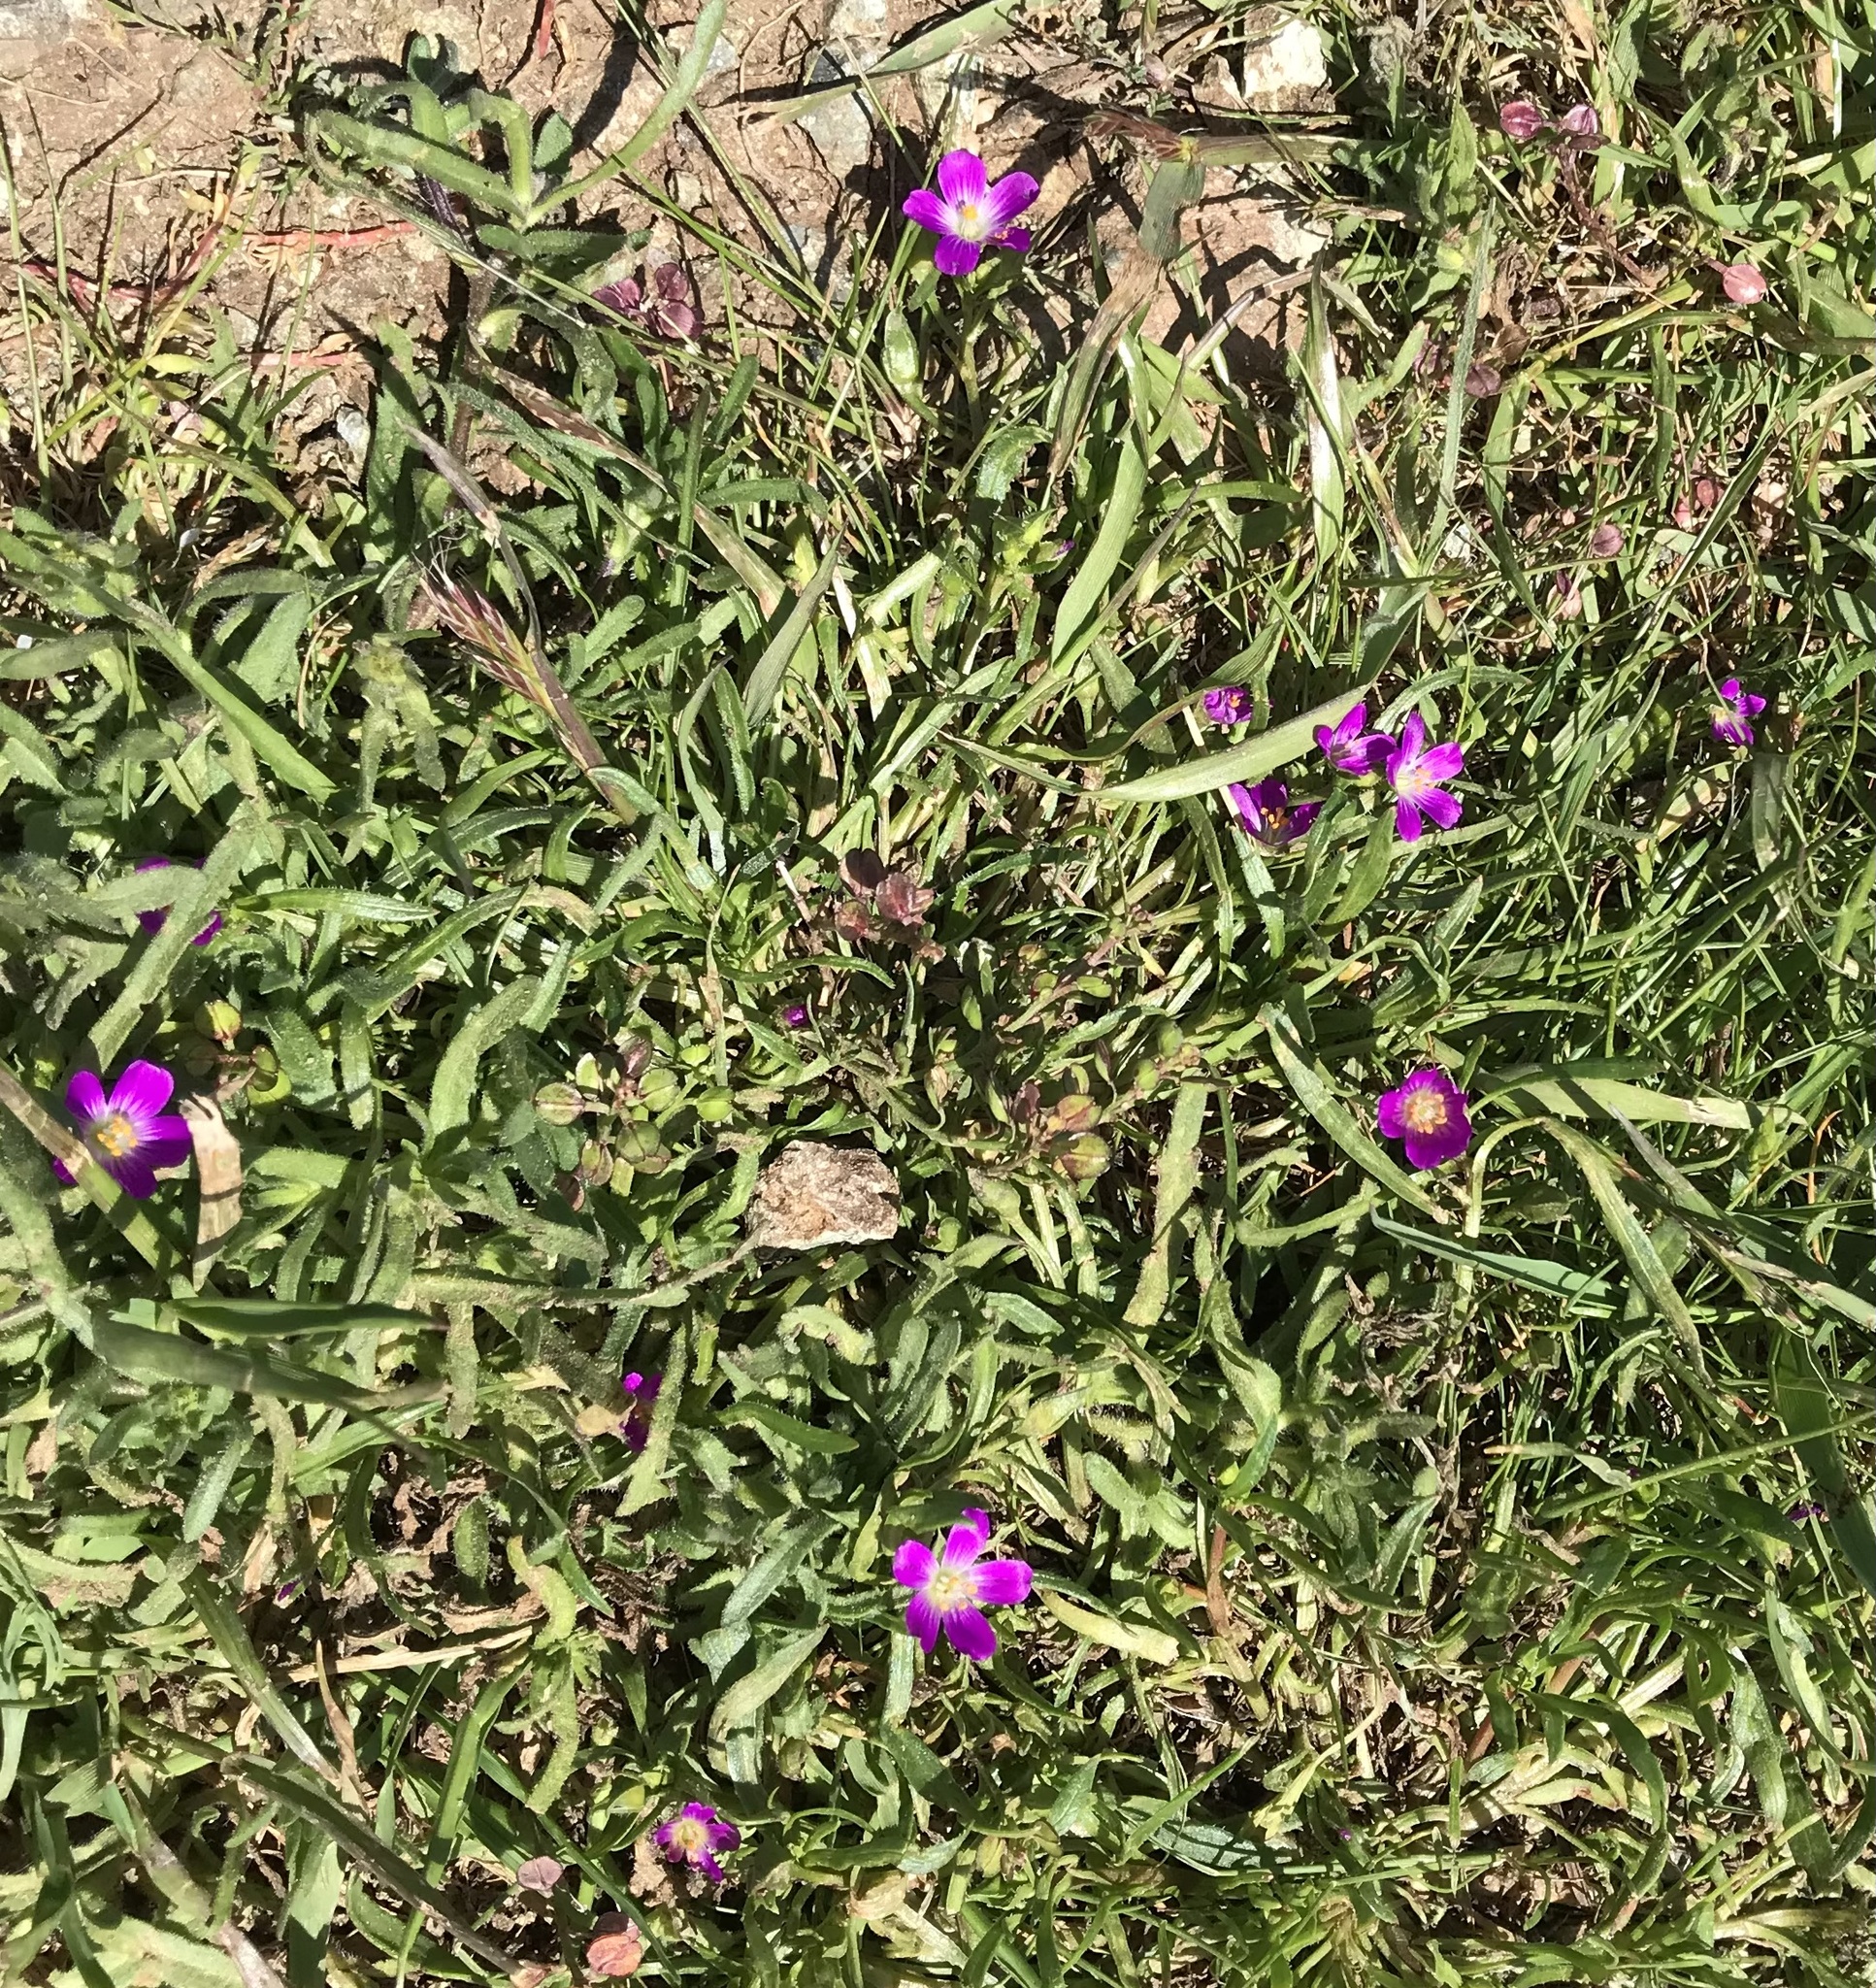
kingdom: Plantae
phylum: Tracheophyta
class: Magnoliopsida
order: Caryophyllales
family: Montiaceae
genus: Calandrinia
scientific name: Calandrinia menziesii
